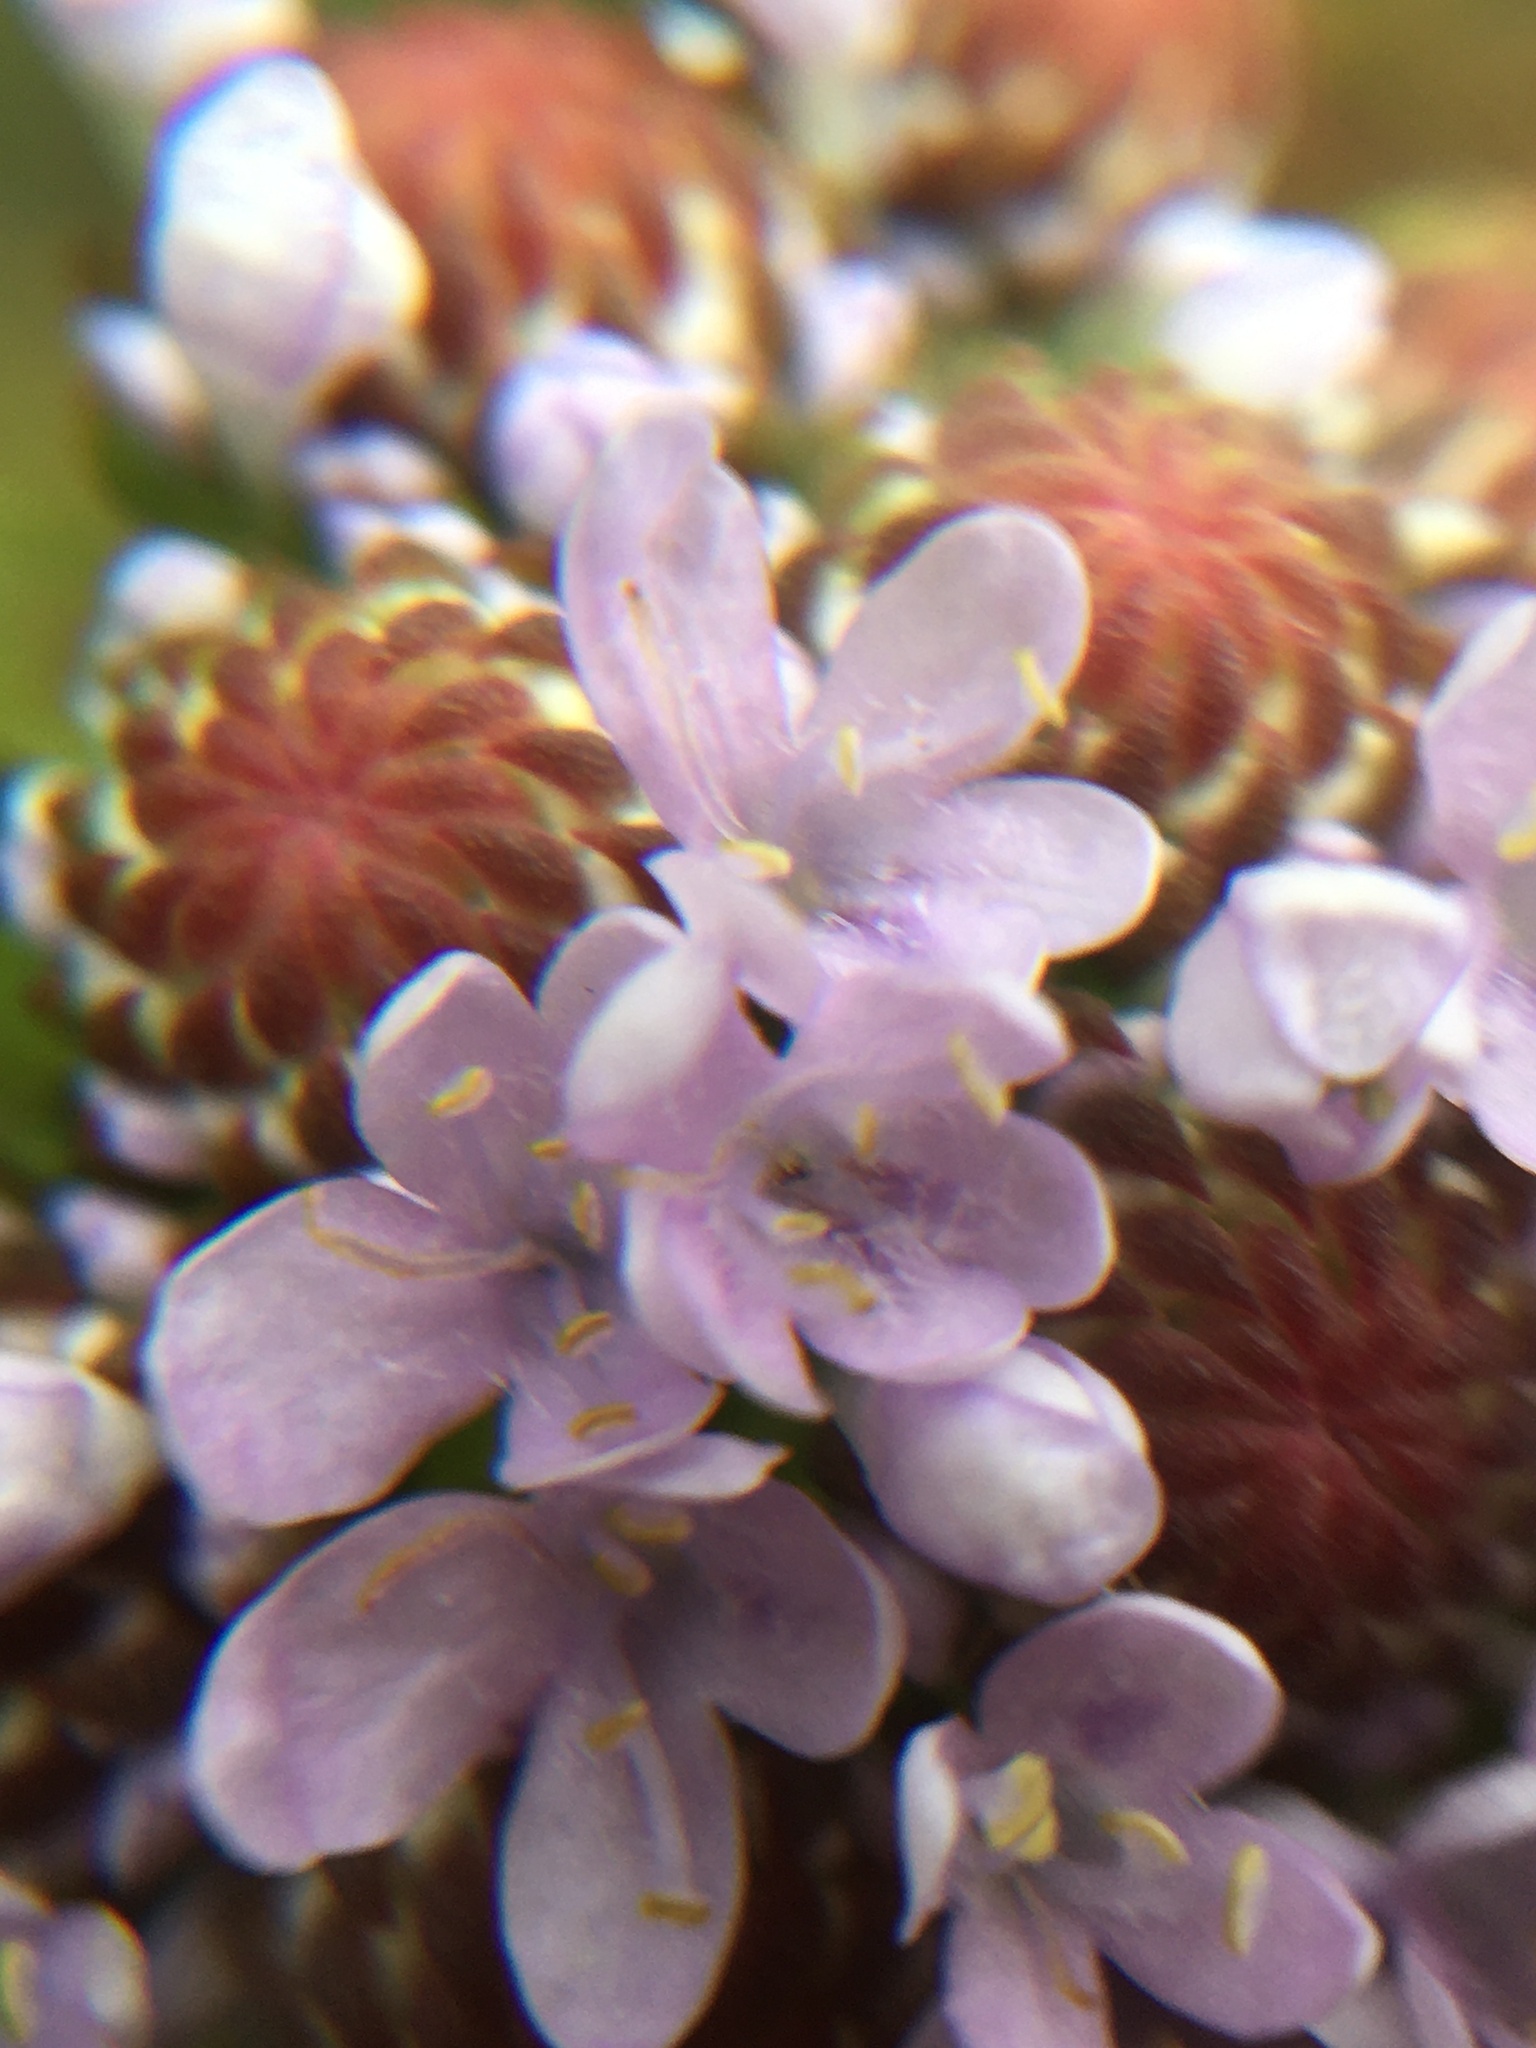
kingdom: Plantae
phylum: Tracheophyta
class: Magnoliopsida
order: Lamiales
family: Scrophulariaceae
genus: Pseudoselago
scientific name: Pseudoselago spuria
